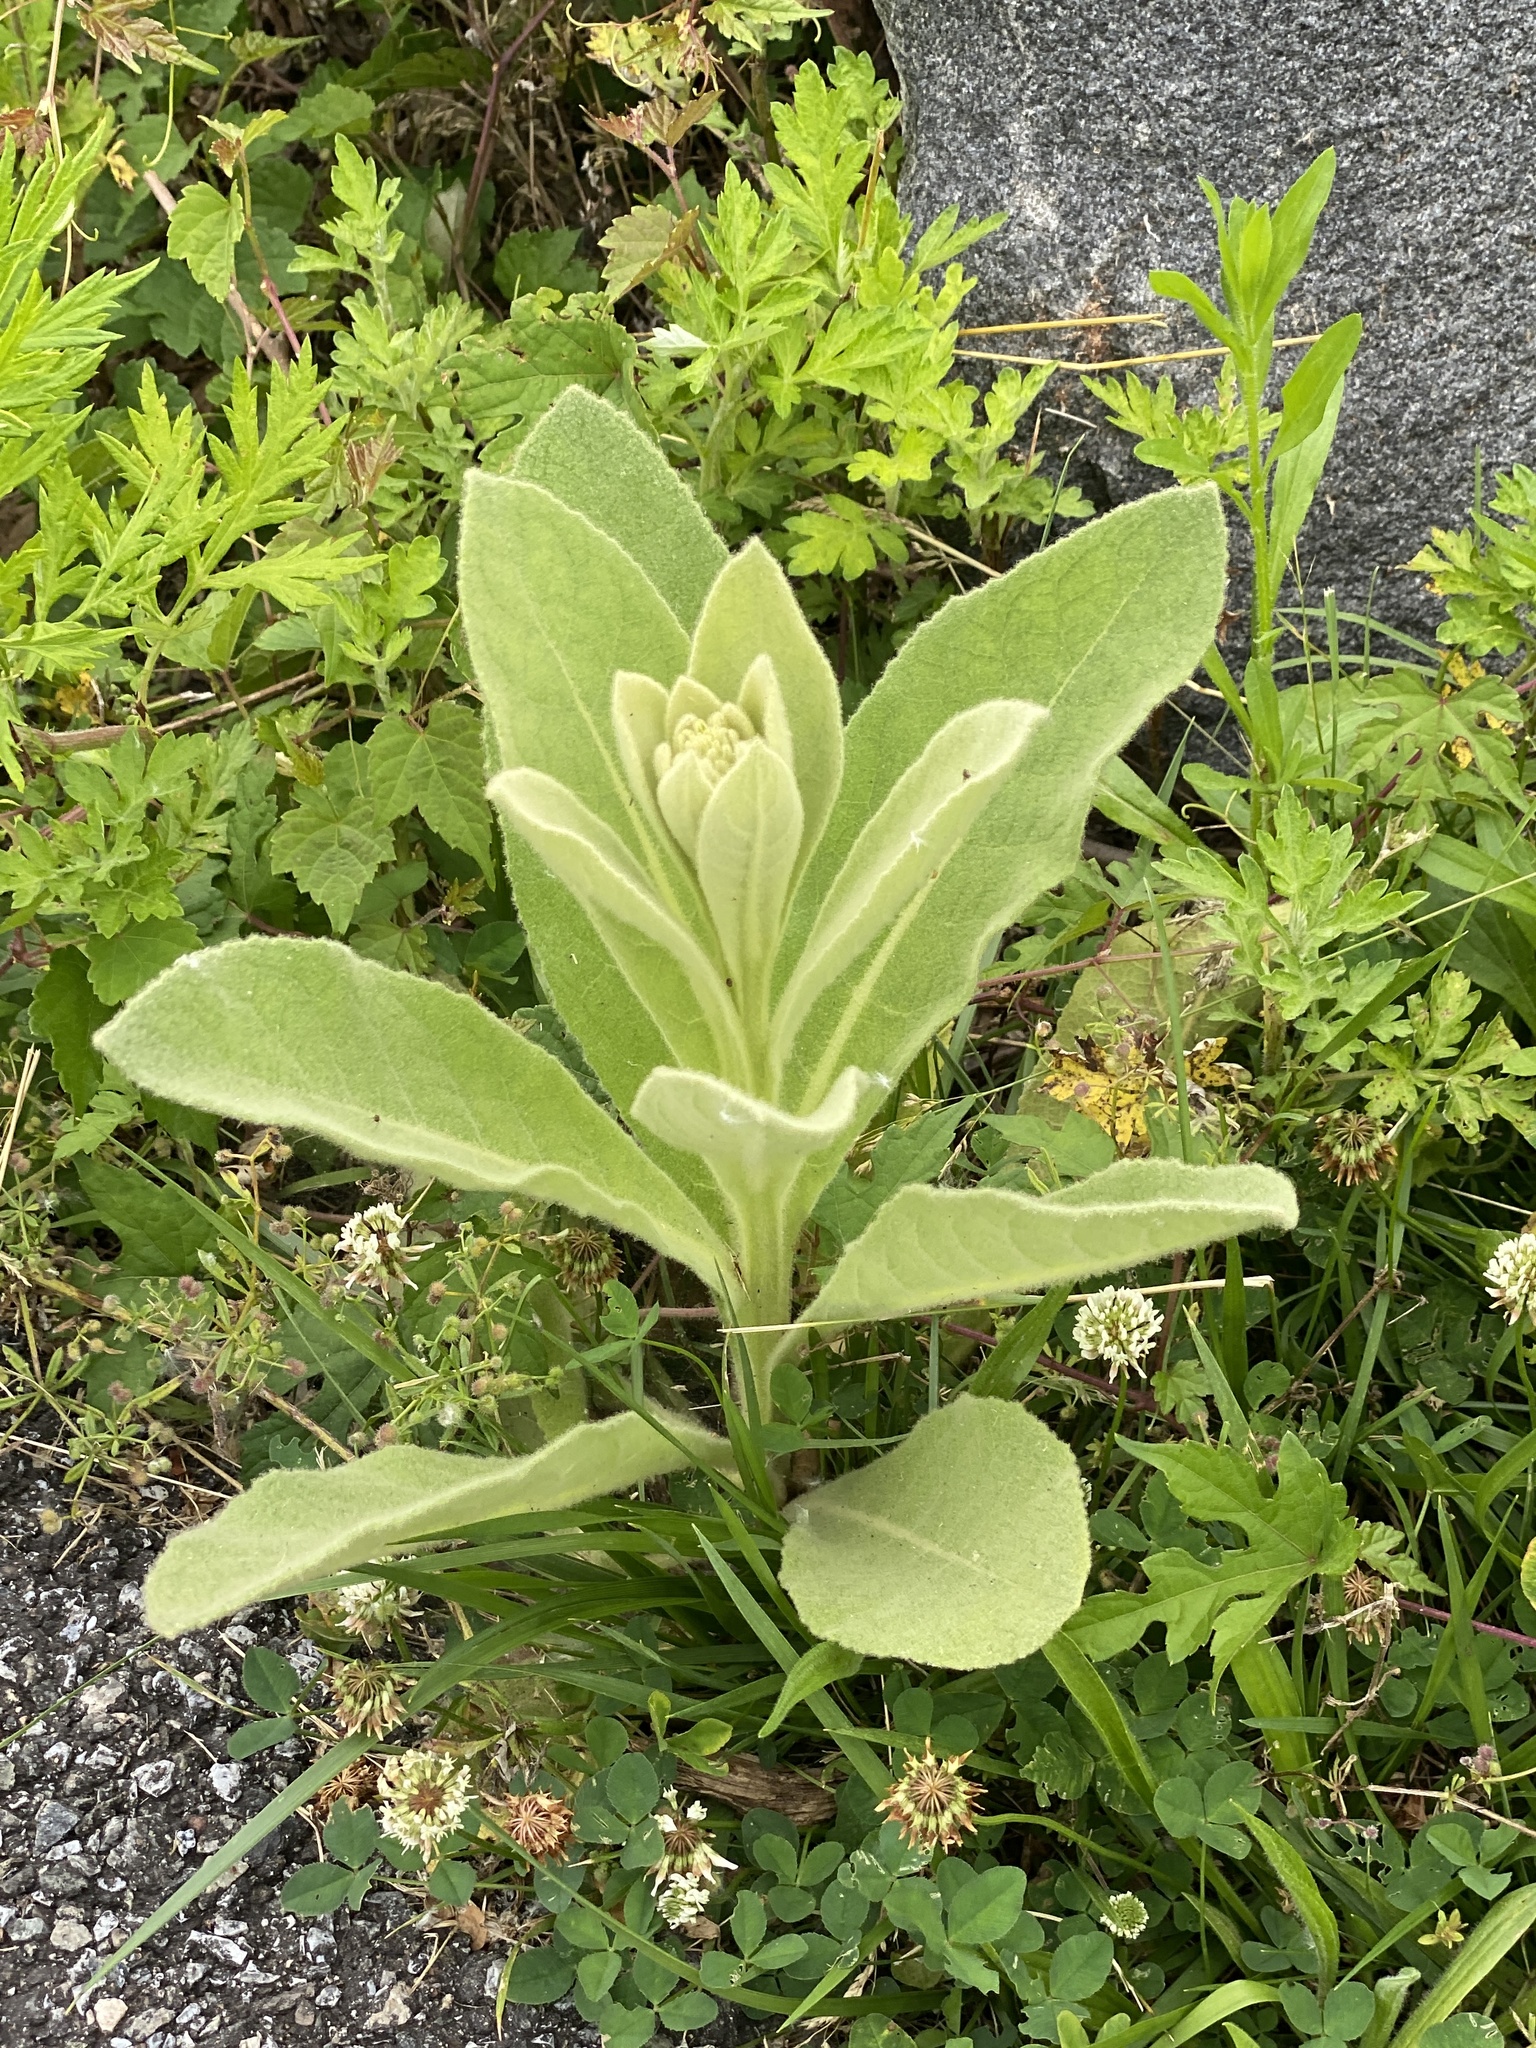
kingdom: Plantae
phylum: Tracheophyta
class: Magnoliopsida
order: Lamiales
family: Scrophulariaceae
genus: Verbascum
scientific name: Verbascum thapsus
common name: Common mullein
